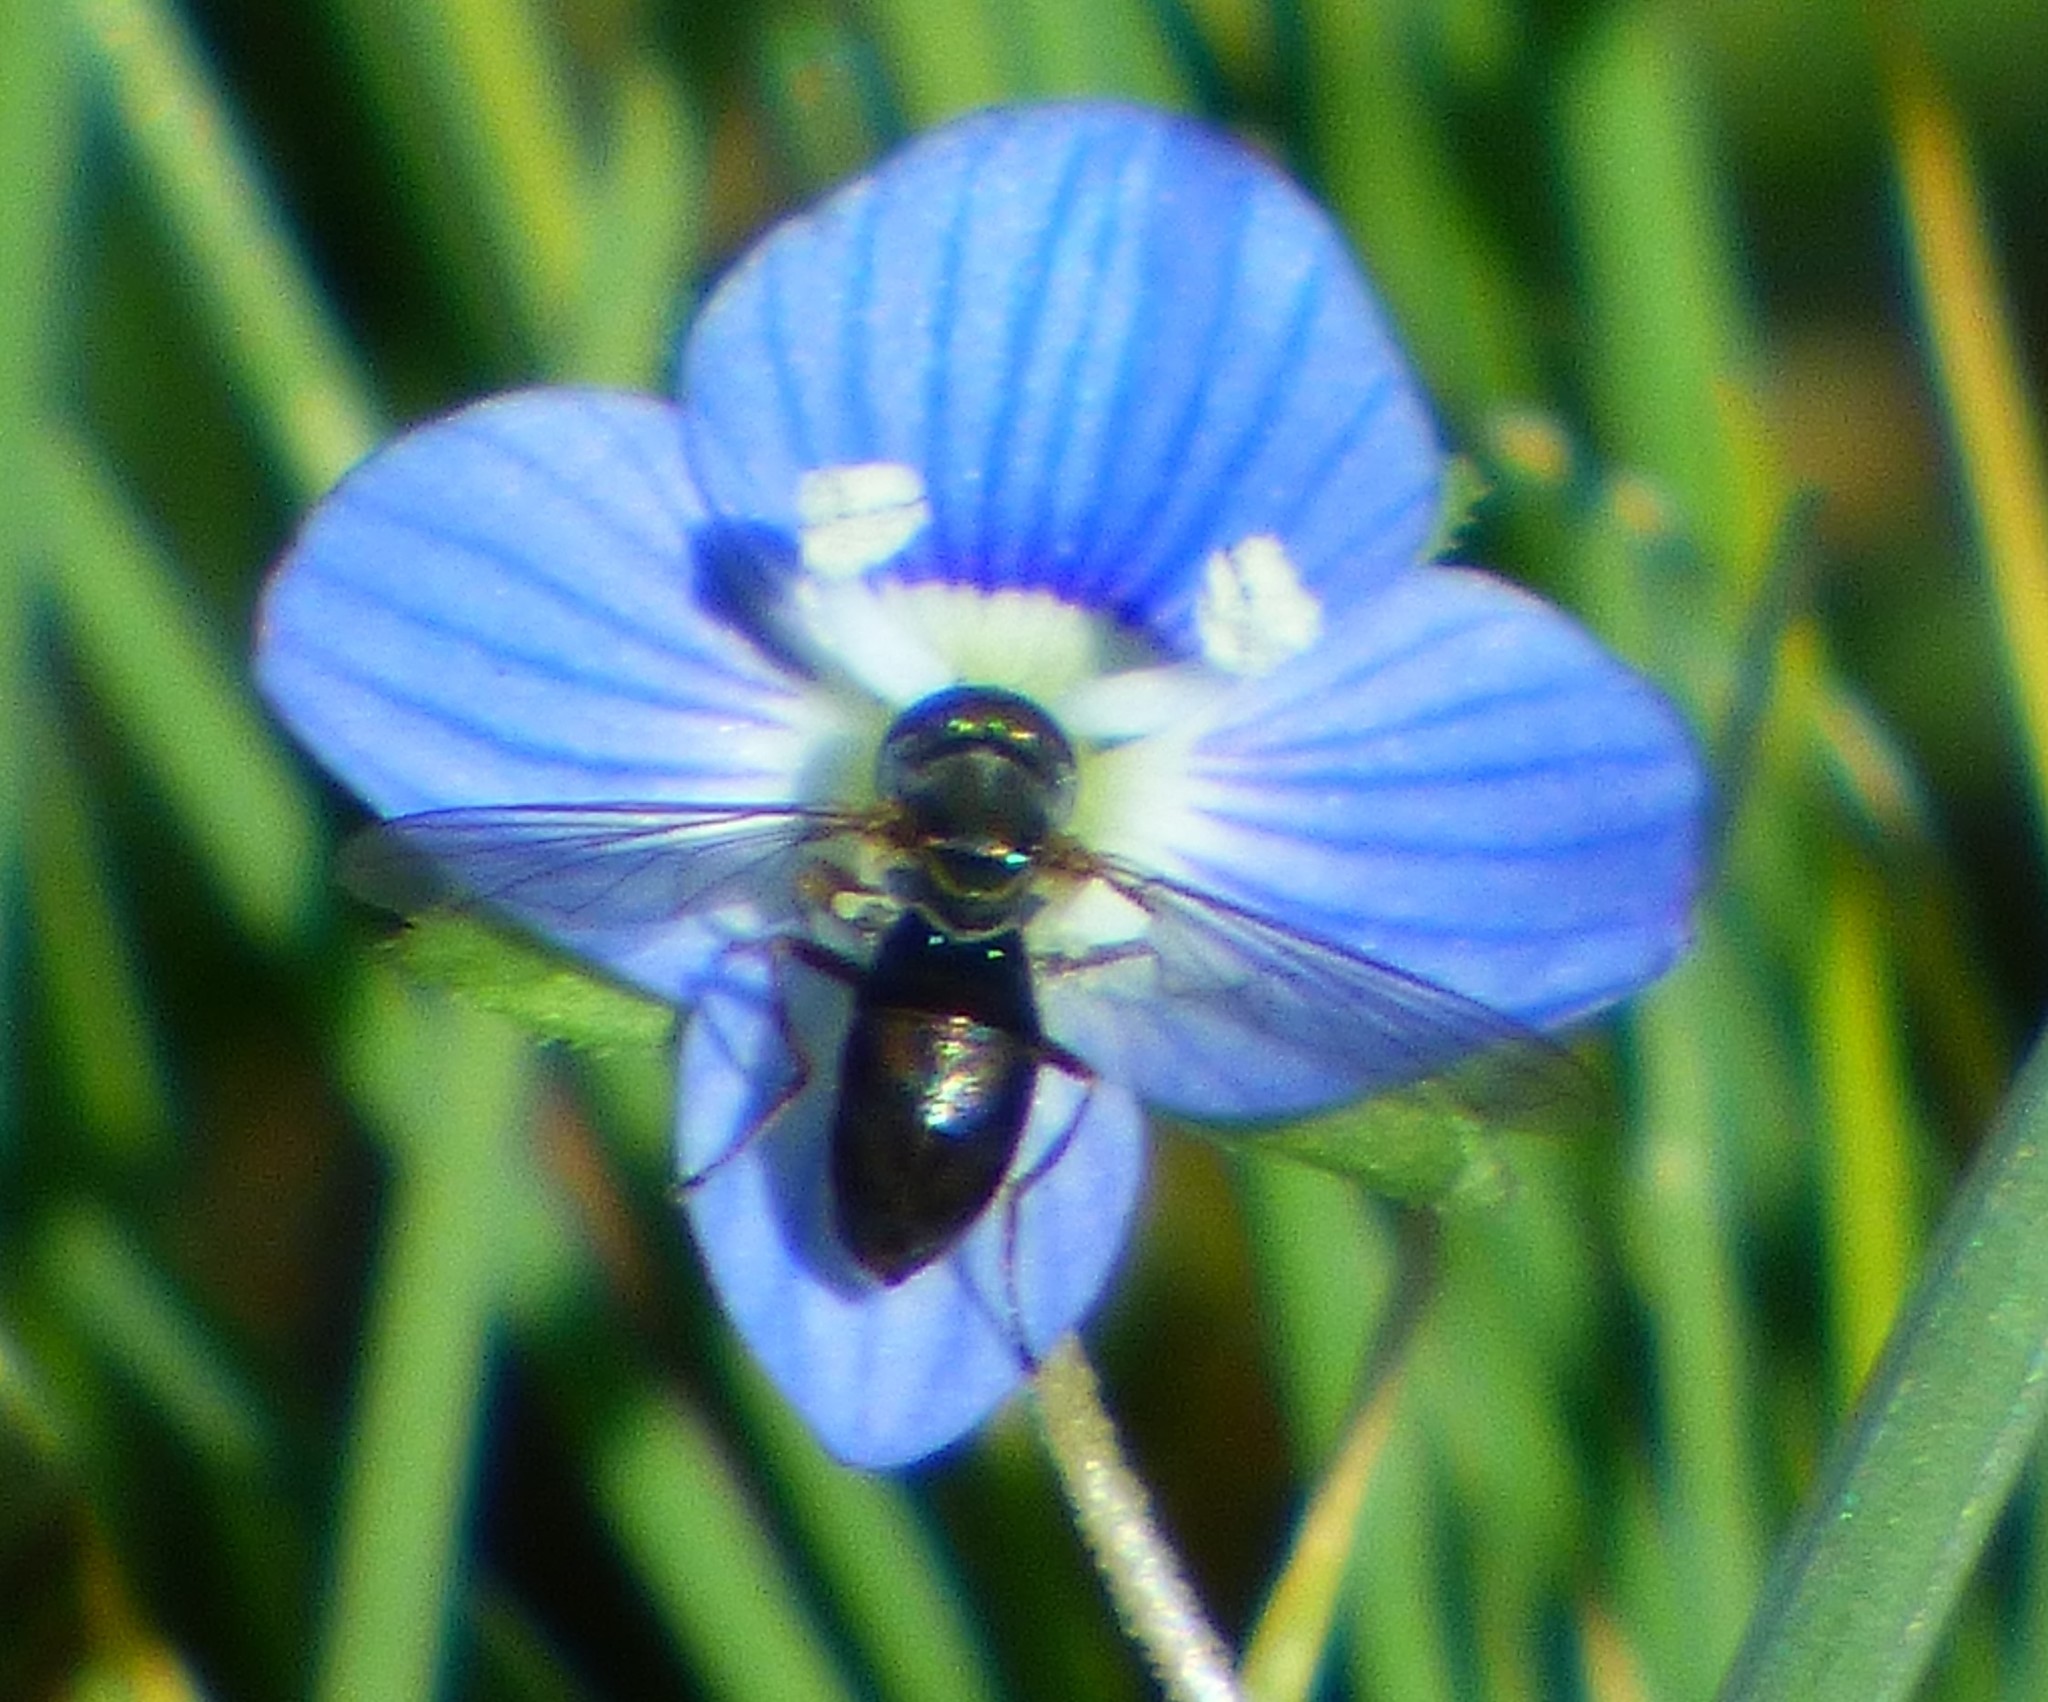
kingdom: Animalia
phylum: Arthropoda
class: Insecta
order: Diptera
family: Syrphidae
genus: Toxomerus
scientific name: Toxomerus
